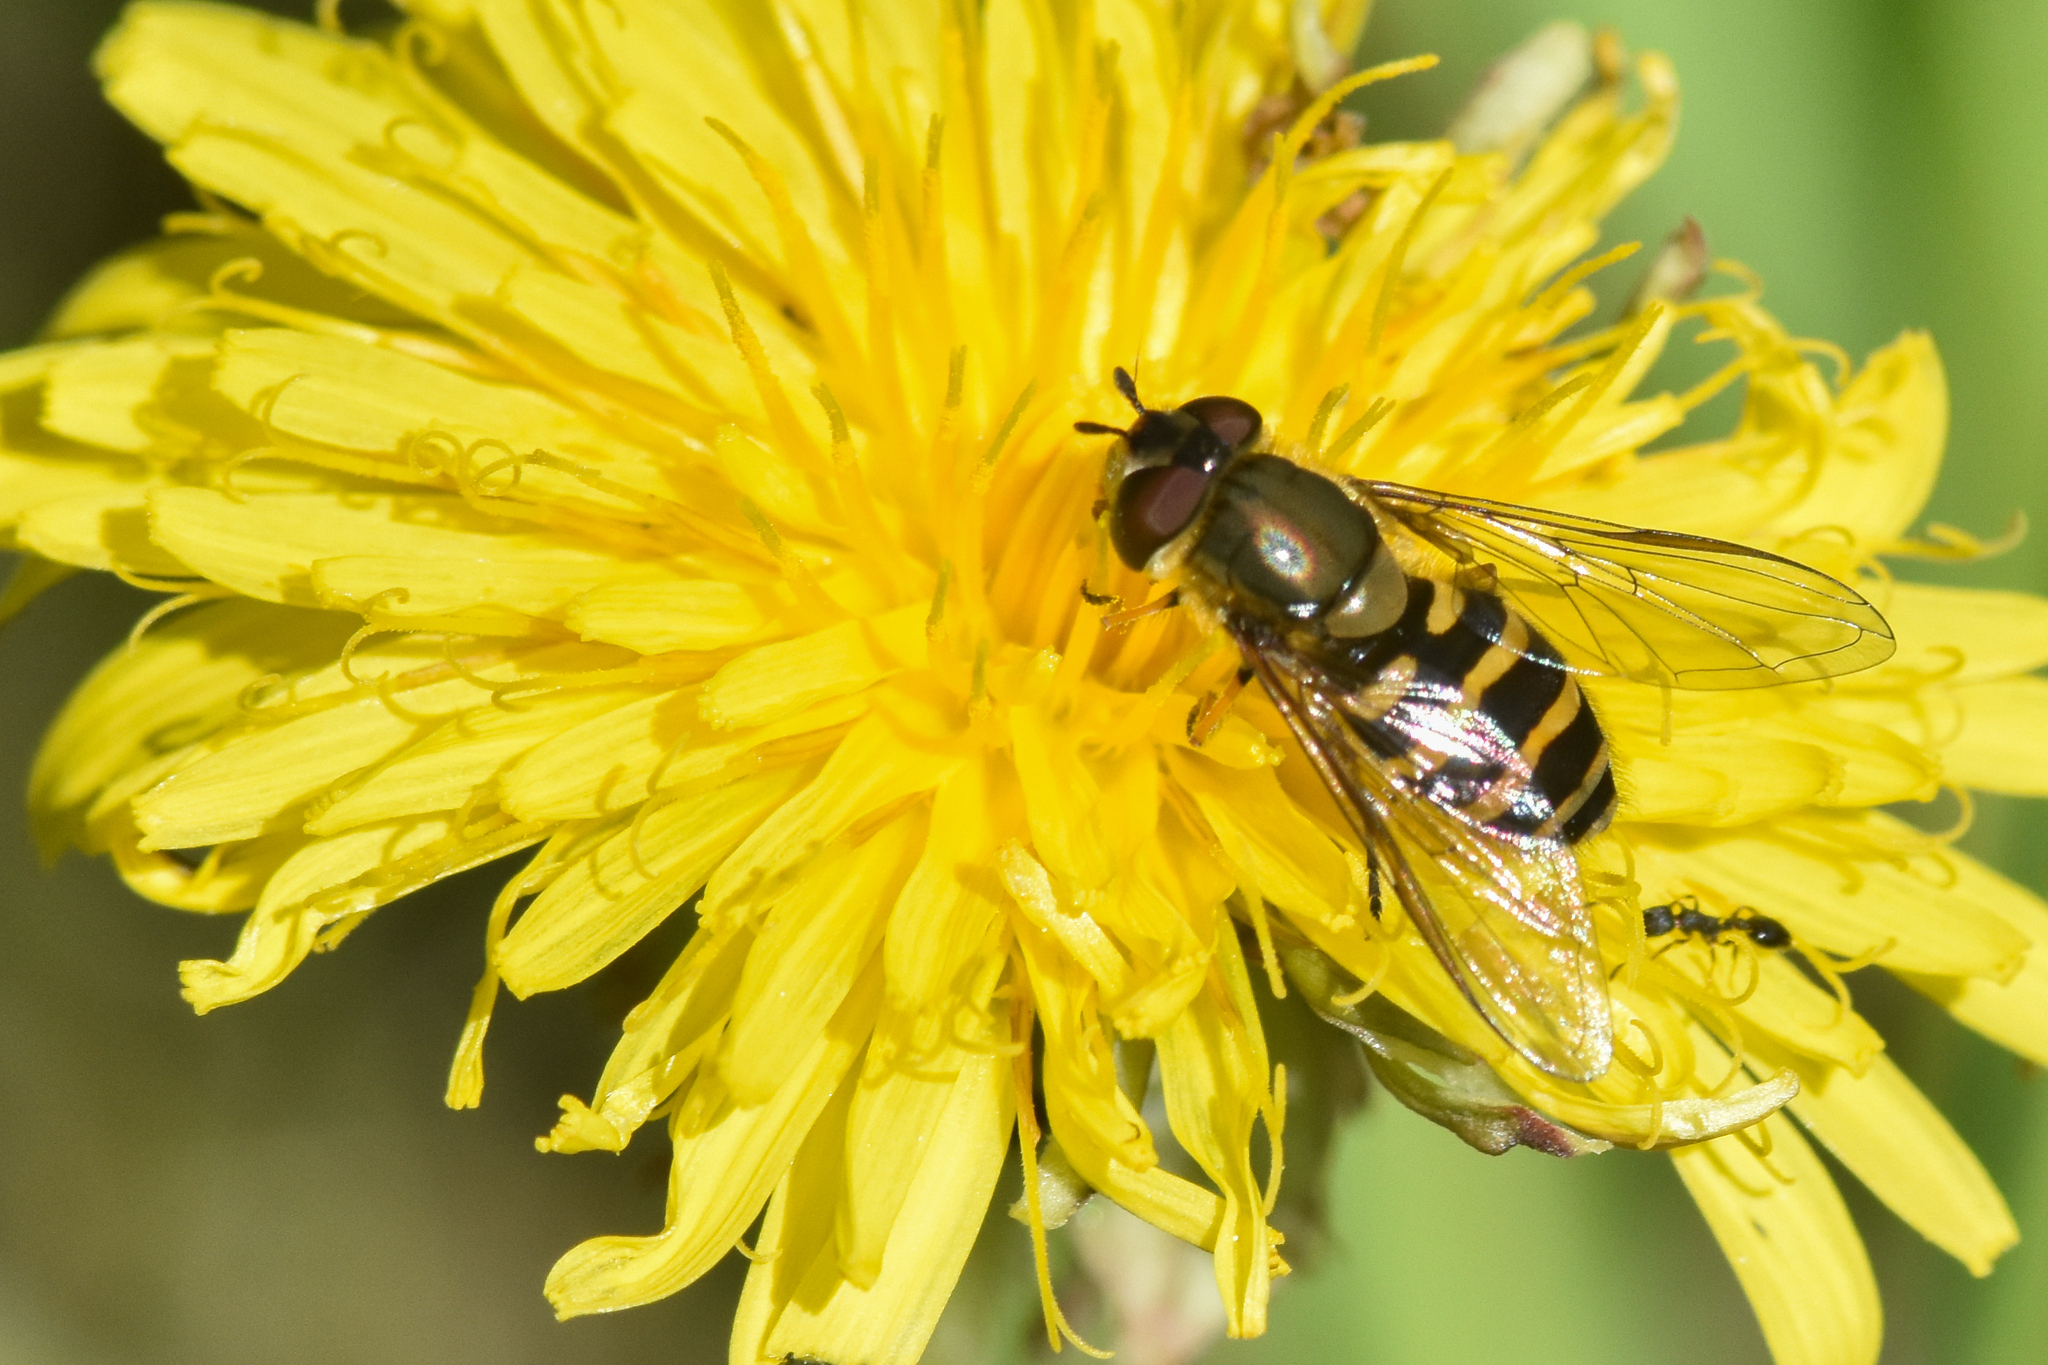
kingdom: Animalia
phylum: Arthropoda
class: Insecta
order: Diptera
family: Syrphidae
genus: Syrphus
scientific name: Syrphus
